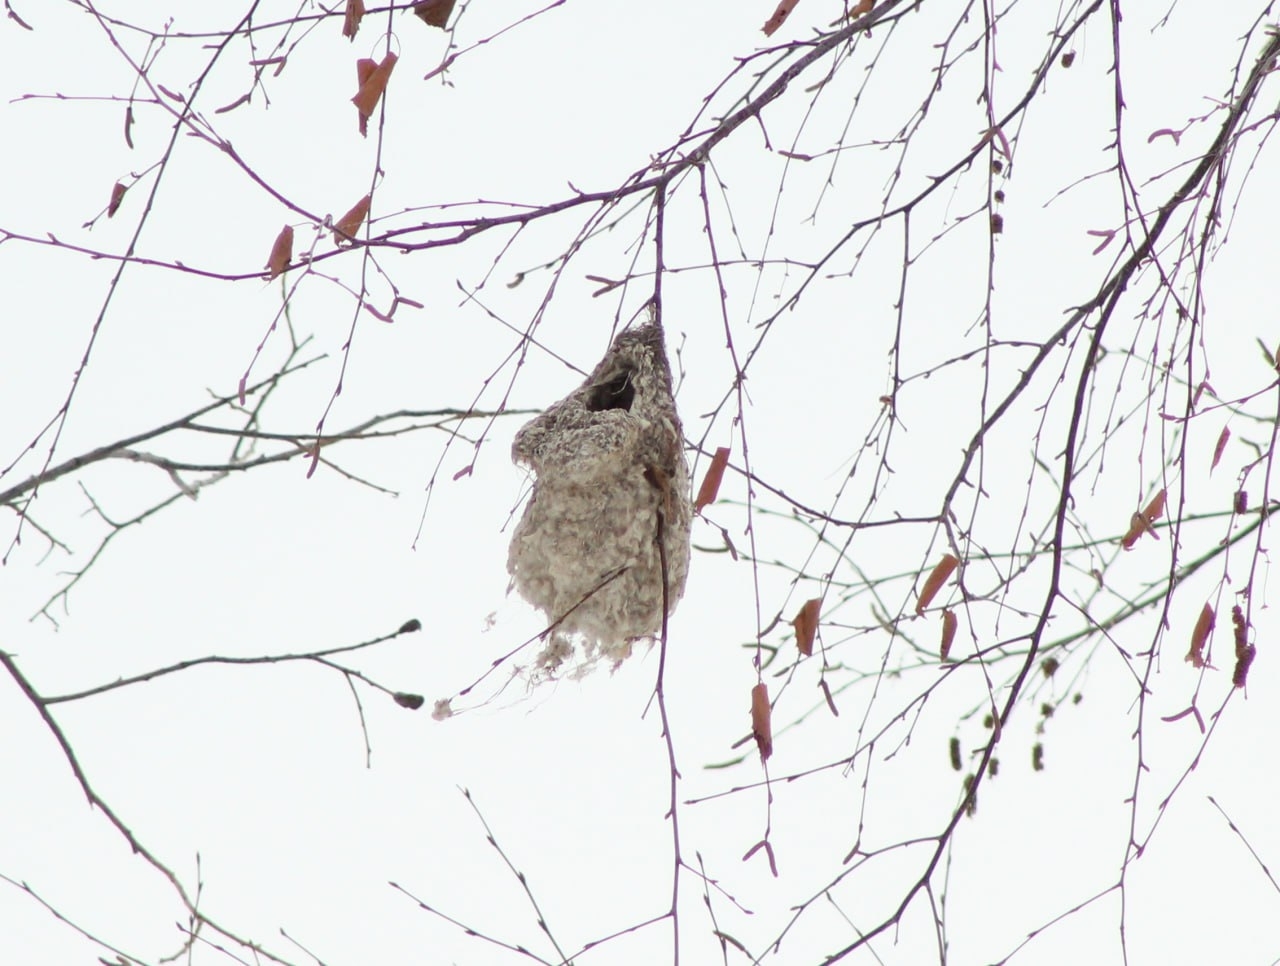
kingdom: Animalia
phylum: Chordata
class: Aves
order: Passeriformes
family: Remizidae
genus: Remiz
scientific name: Remiz pendulinus
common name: Eurasian penduline tit
